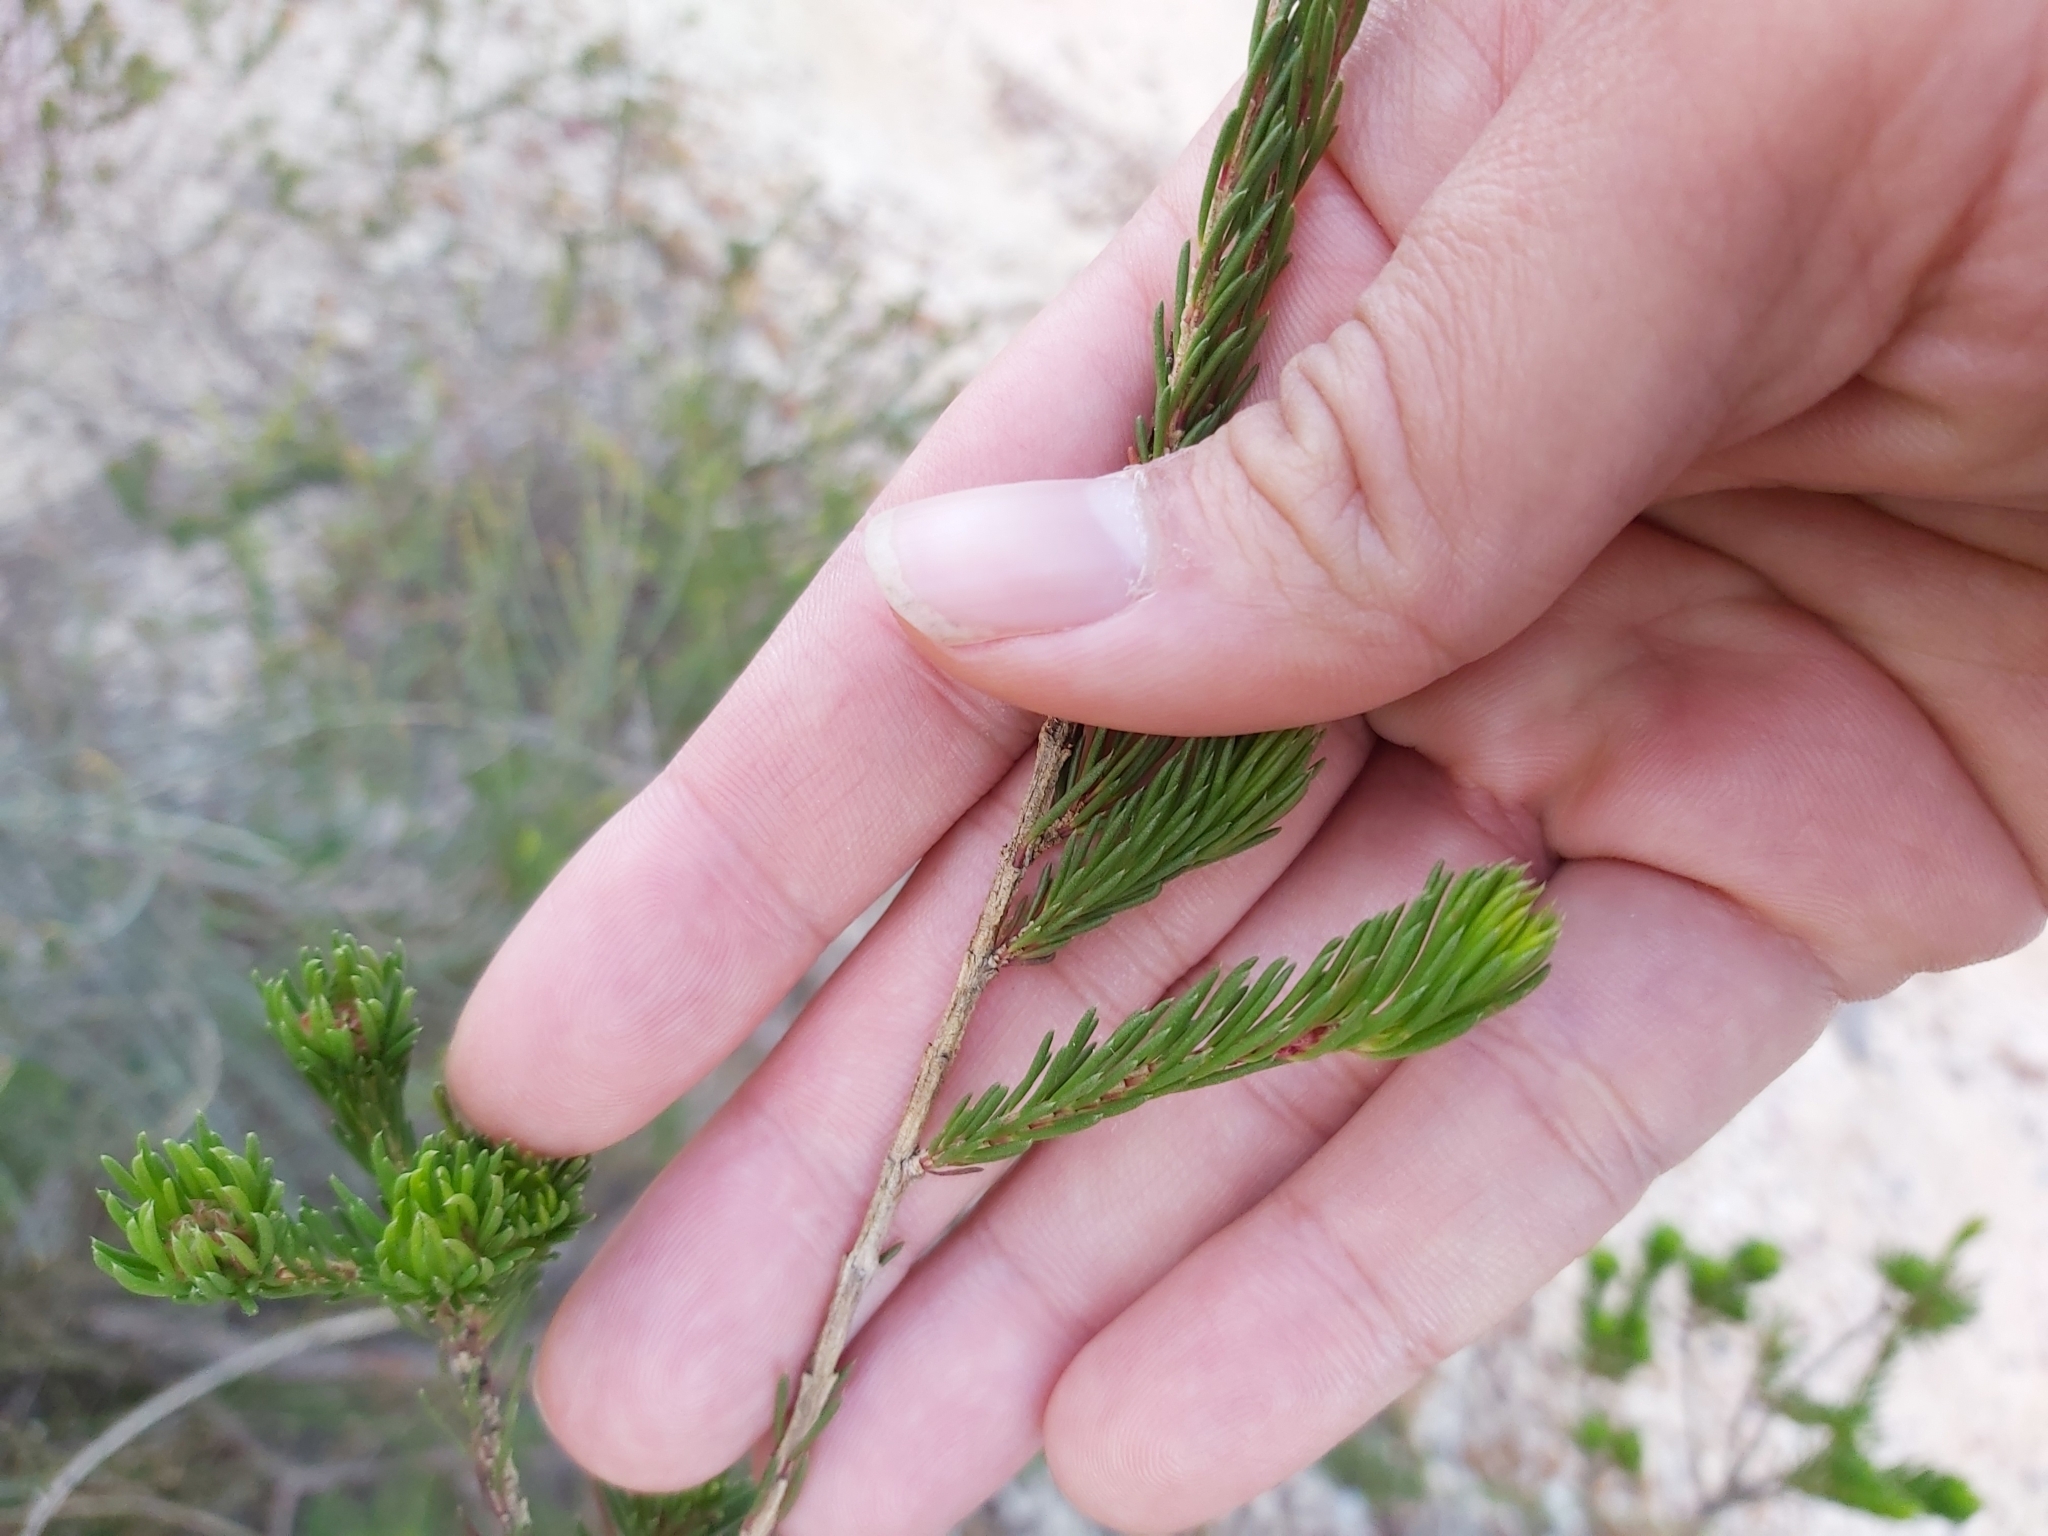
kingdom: Plantae
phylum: Tracheophyta
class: Magnoliopsida
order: Myrtales
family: Myrtaceae
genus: Darwinia
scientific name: Darwinia fascicularis
